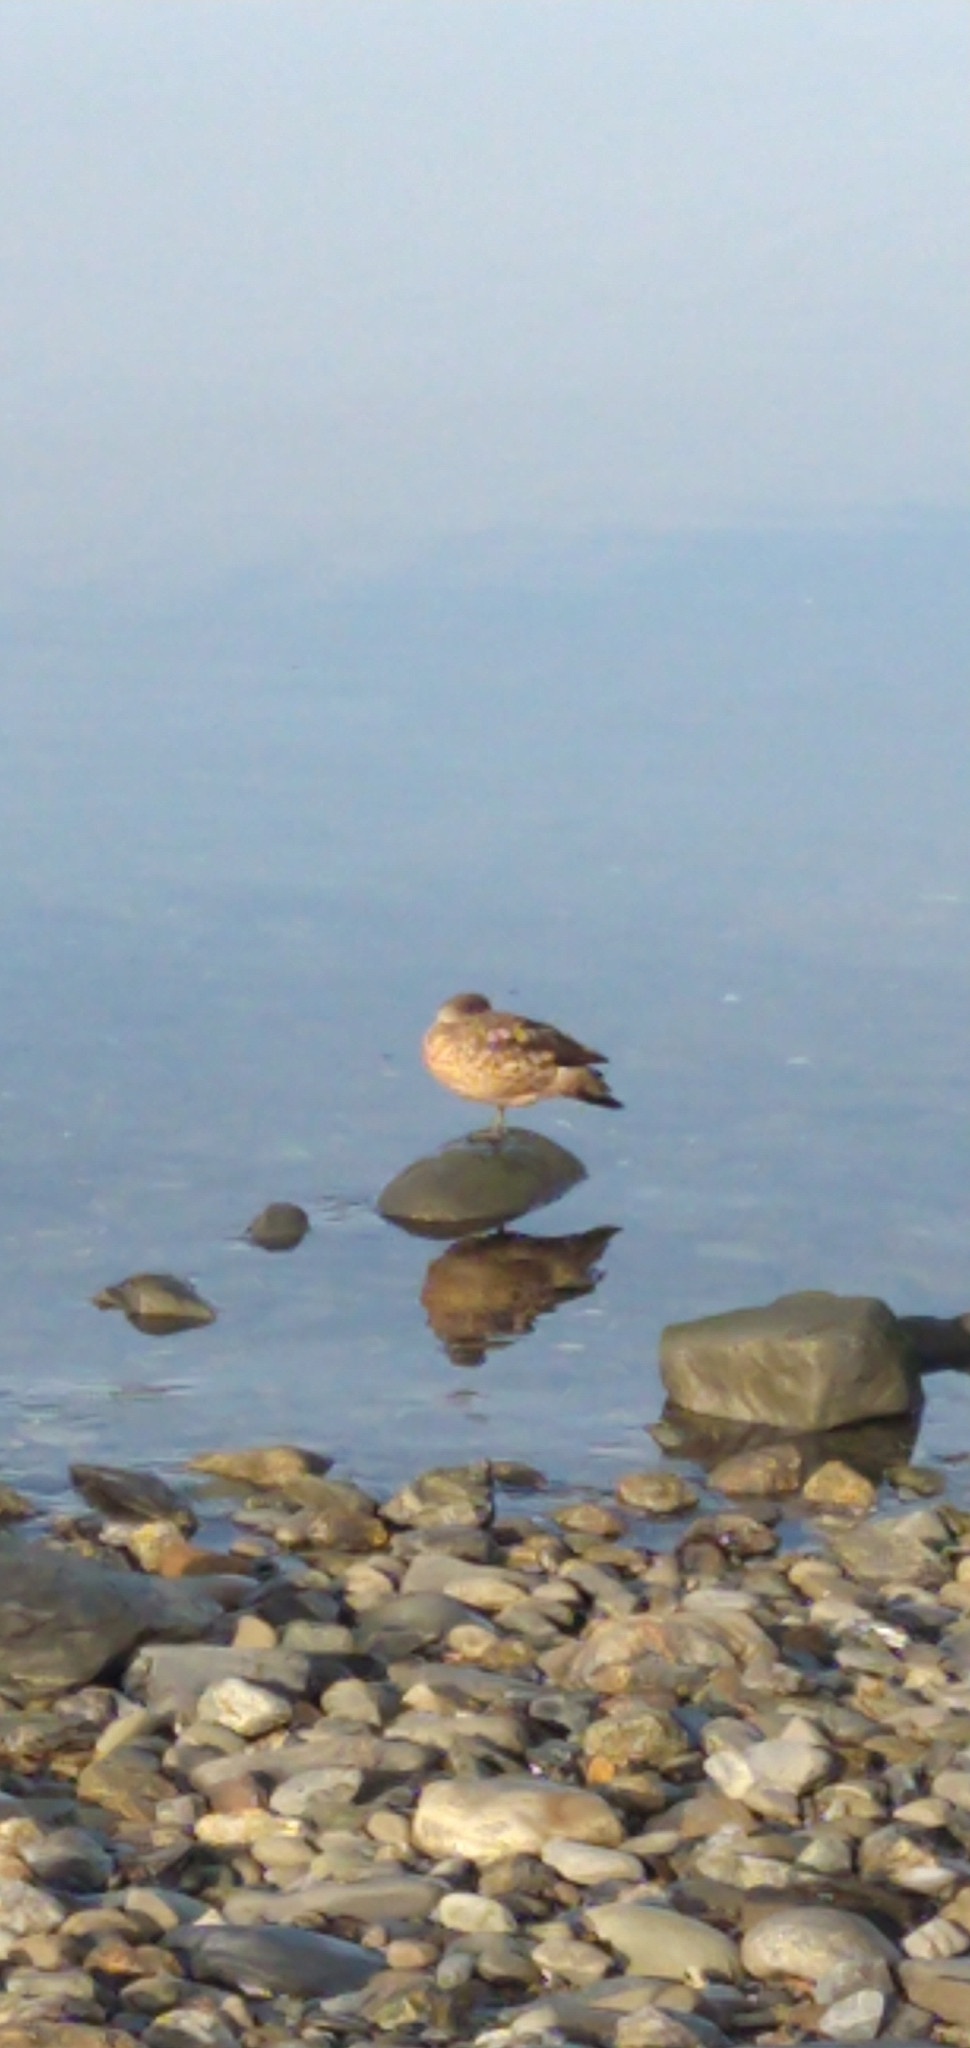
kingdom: Animalia
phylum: Chordata
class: Aves
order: Anseriformes
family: Anatidae
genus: Lophonetta
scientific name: Lophonetta specularioides
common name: Crested duck
